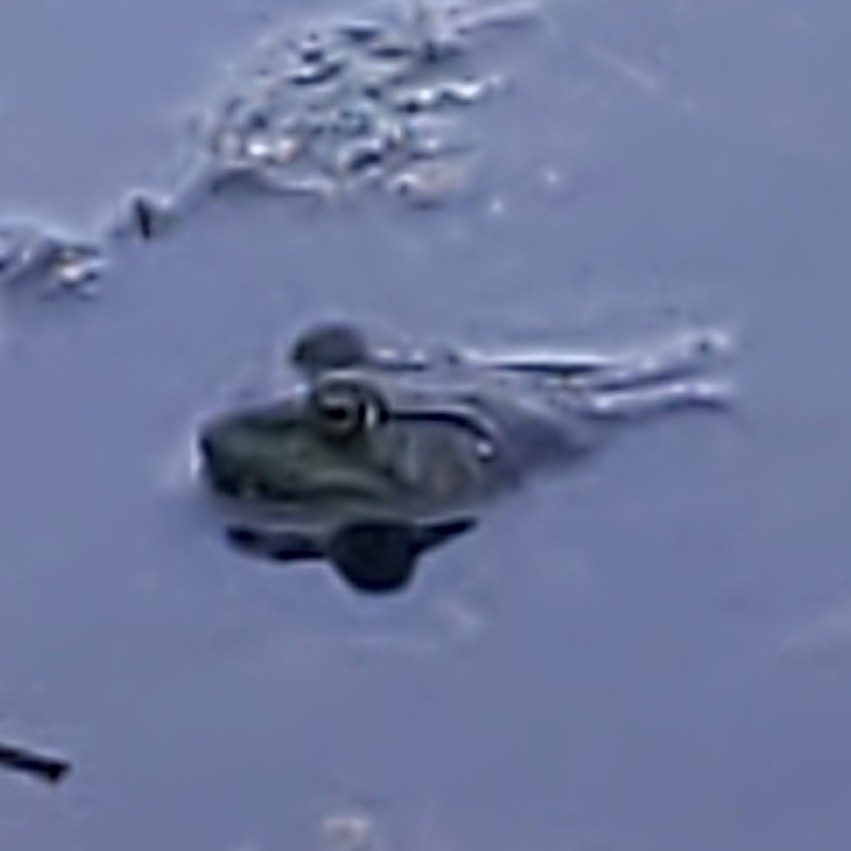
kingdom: Animalia
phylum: Chordata
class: Amphibia
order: Anura
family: Ranidae
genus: Lithobates
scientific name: Lithobates catesbeianus
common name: American bullfrog
